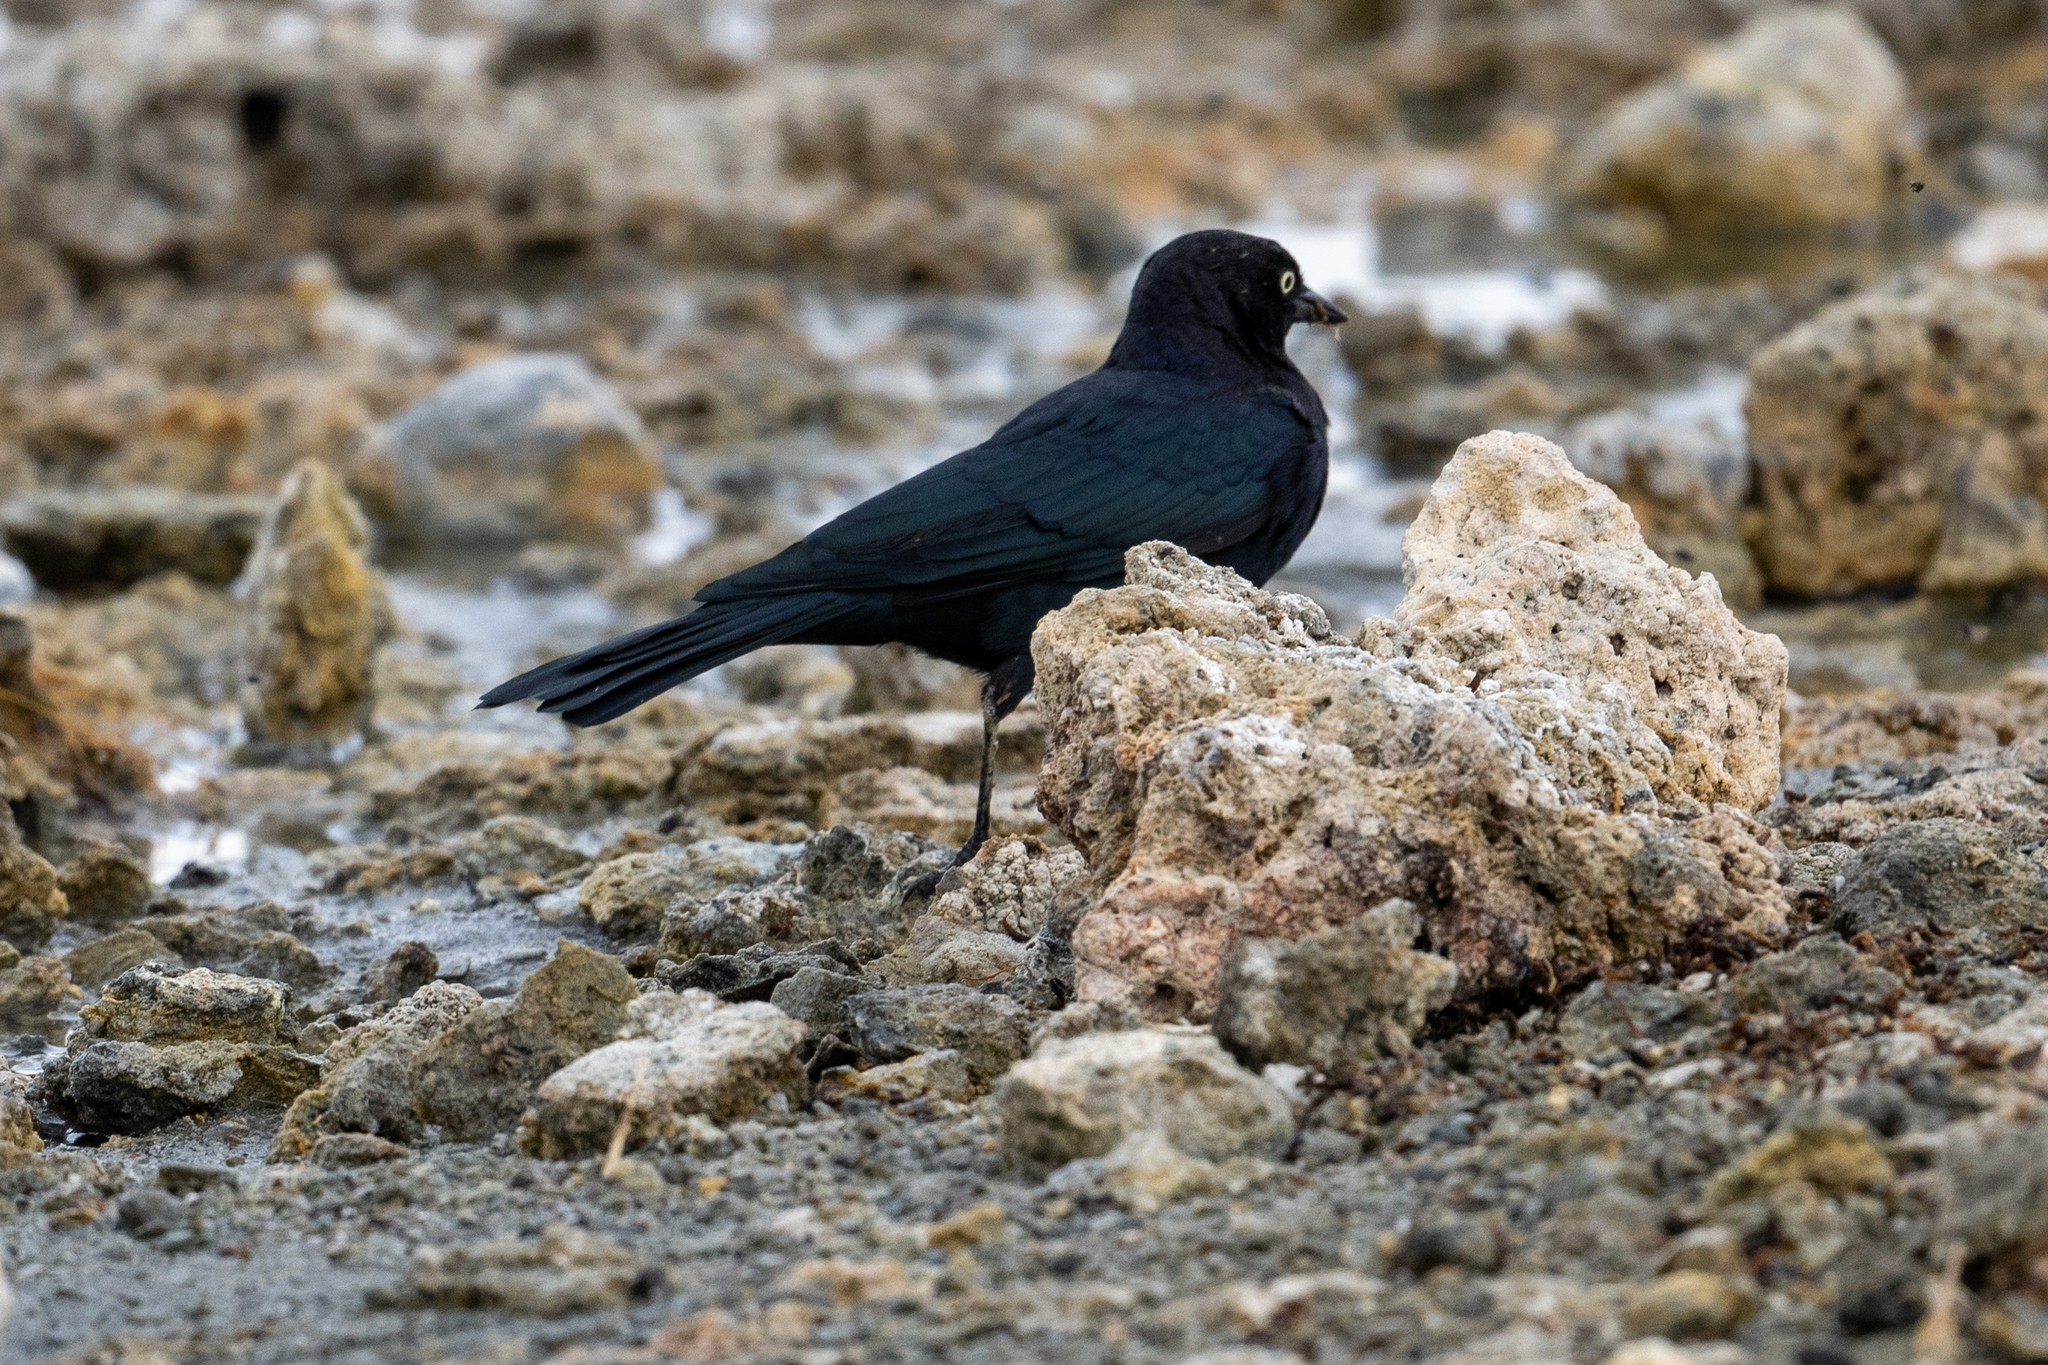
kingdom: Animalia
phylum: Chordata
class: Aves
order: Passeriformes
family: Icteridae
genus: Euphagus
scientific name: Euphagus cyanocephalus
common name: Brewer's blackbird
